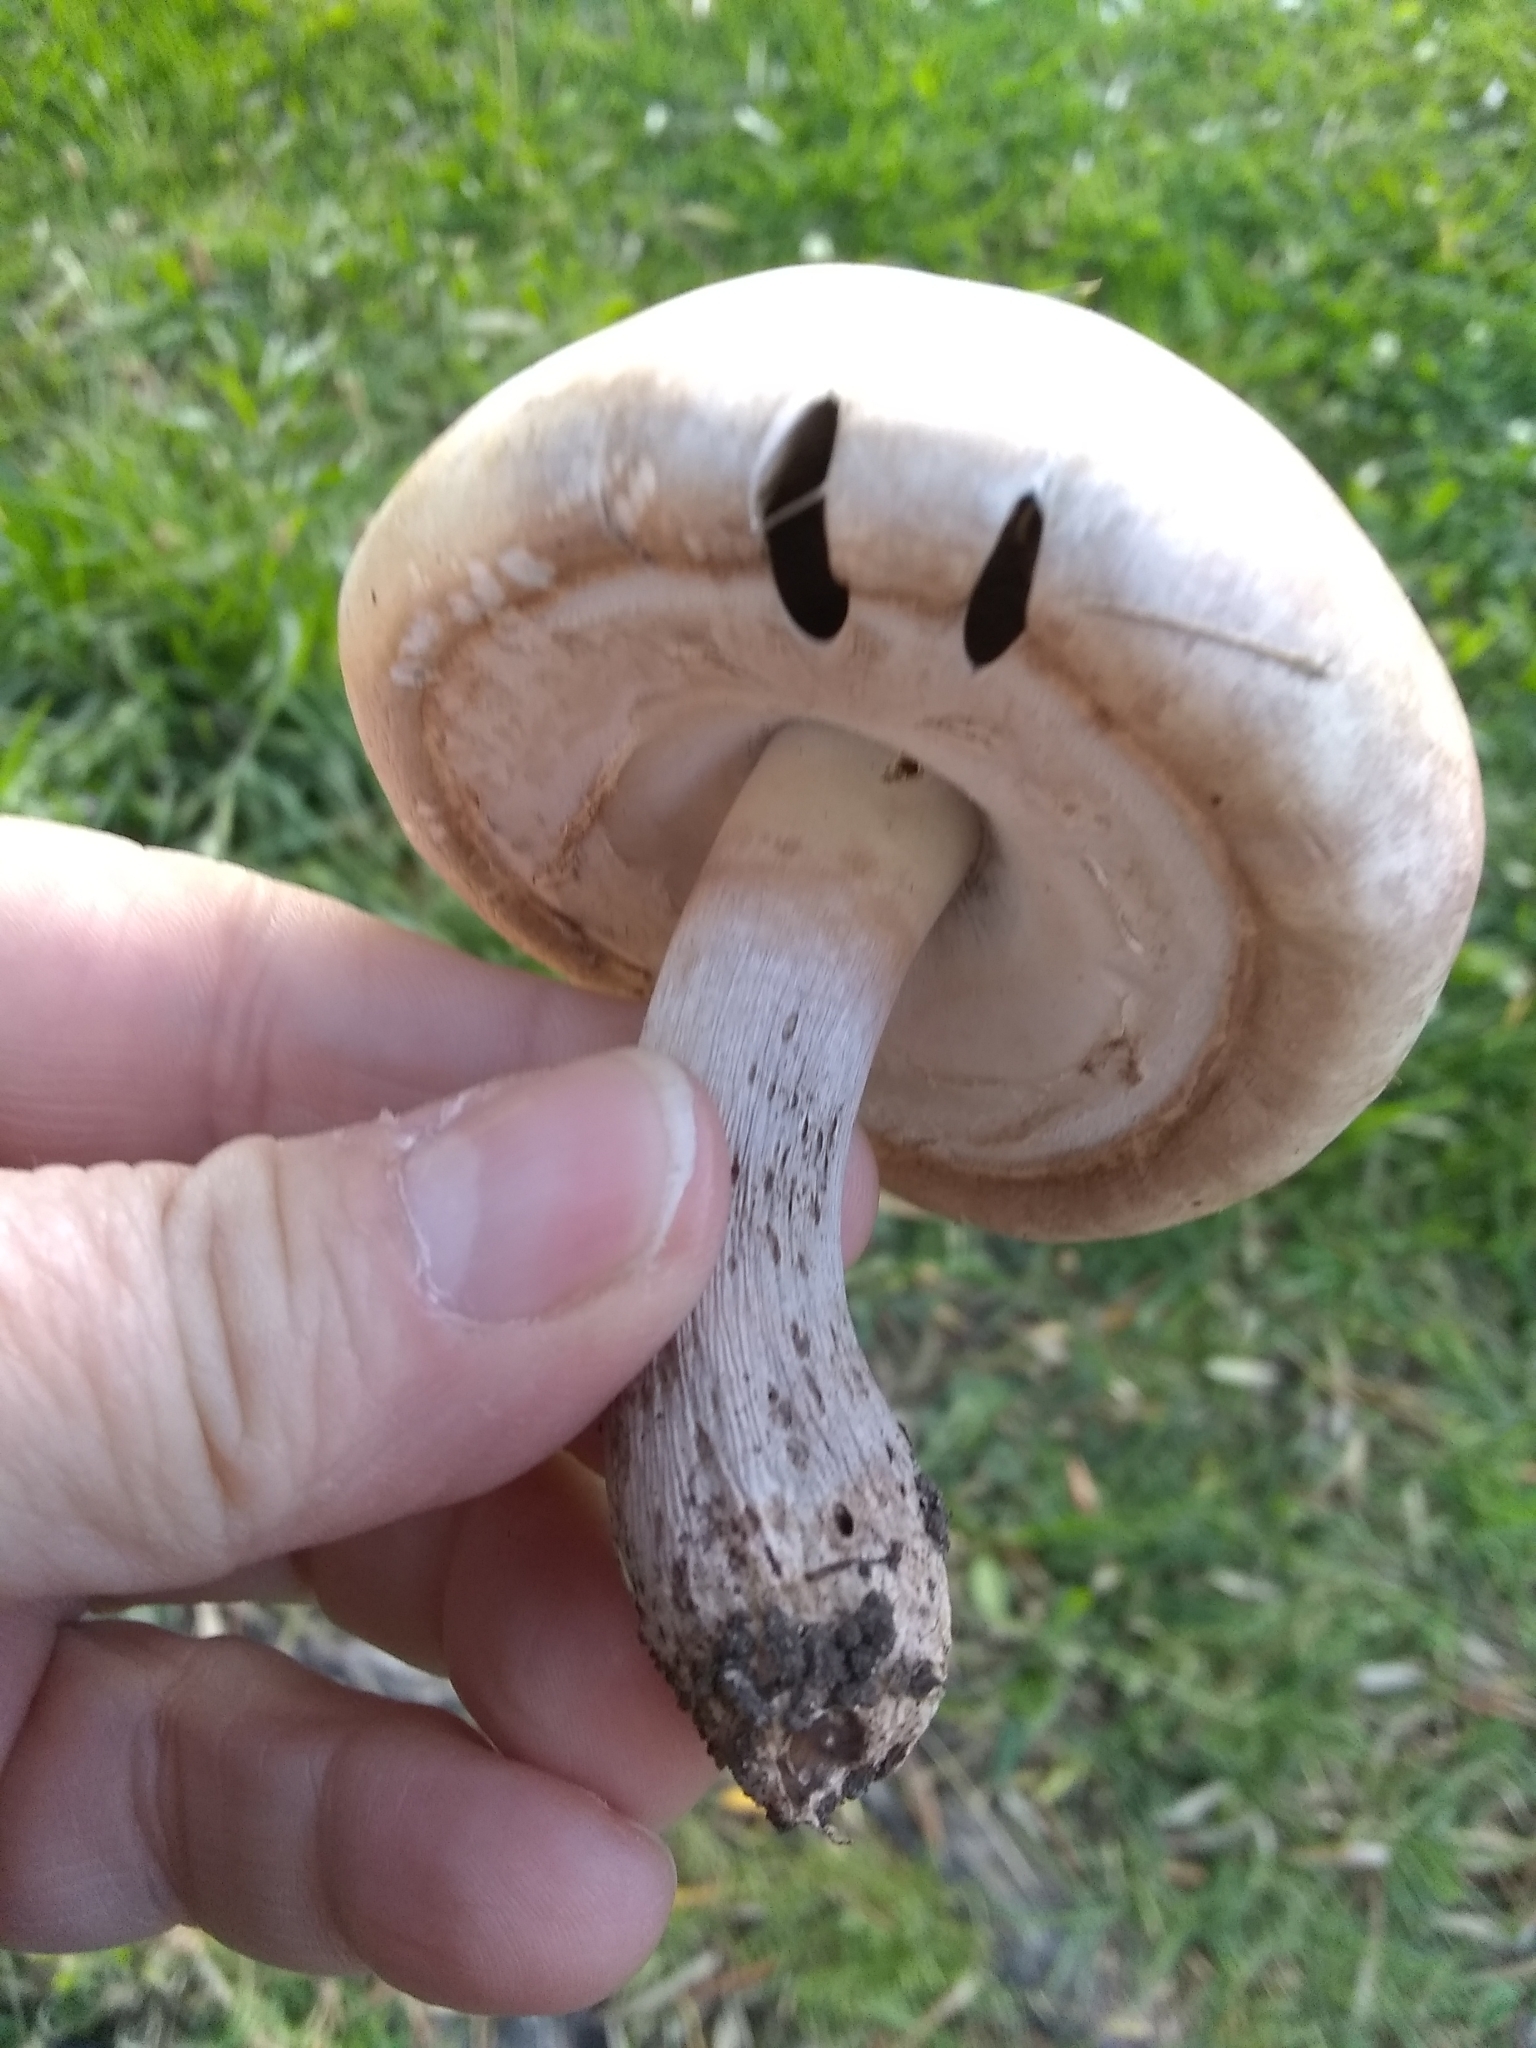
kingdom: Fungi
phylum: Basidiomycota
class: Agaricomycetes
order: Agaricales
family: Agaricaceae
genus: Agaricus
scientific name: Agaricus xanthodermus
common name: Yellow stainer
